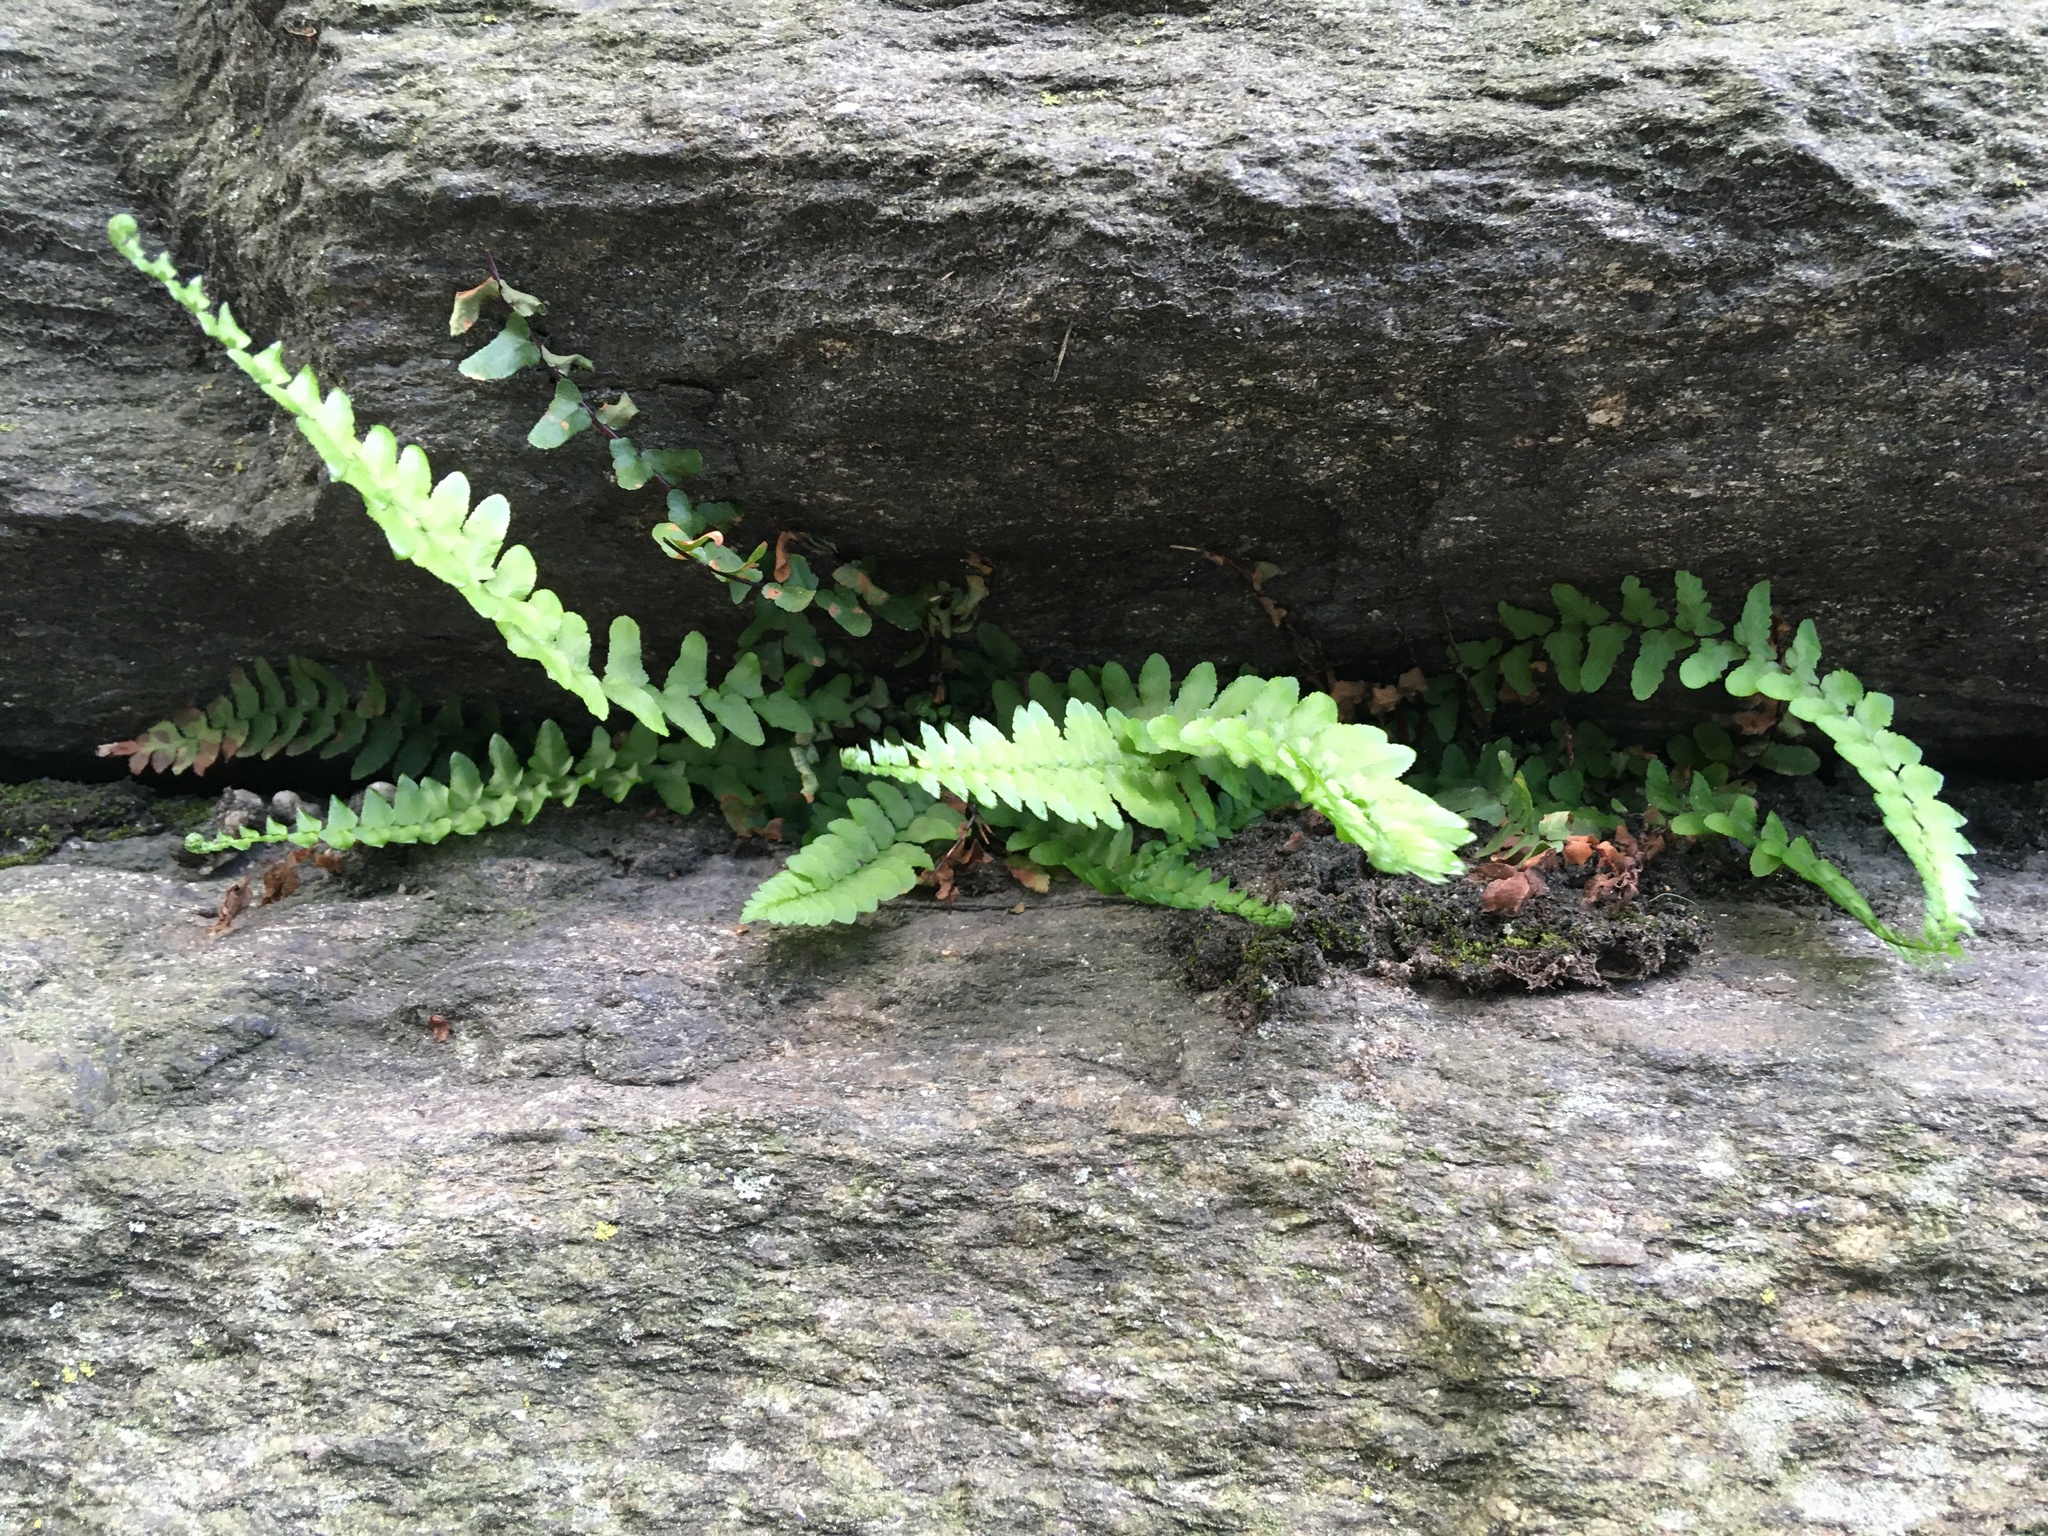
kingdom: Plantae
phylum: Tracheophyta
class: Polypodiopsida
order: Polypodiales
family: Aspleniaceae
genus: Asplenium
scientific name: Asplenium platyneuron
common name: Ebony spleenwort
